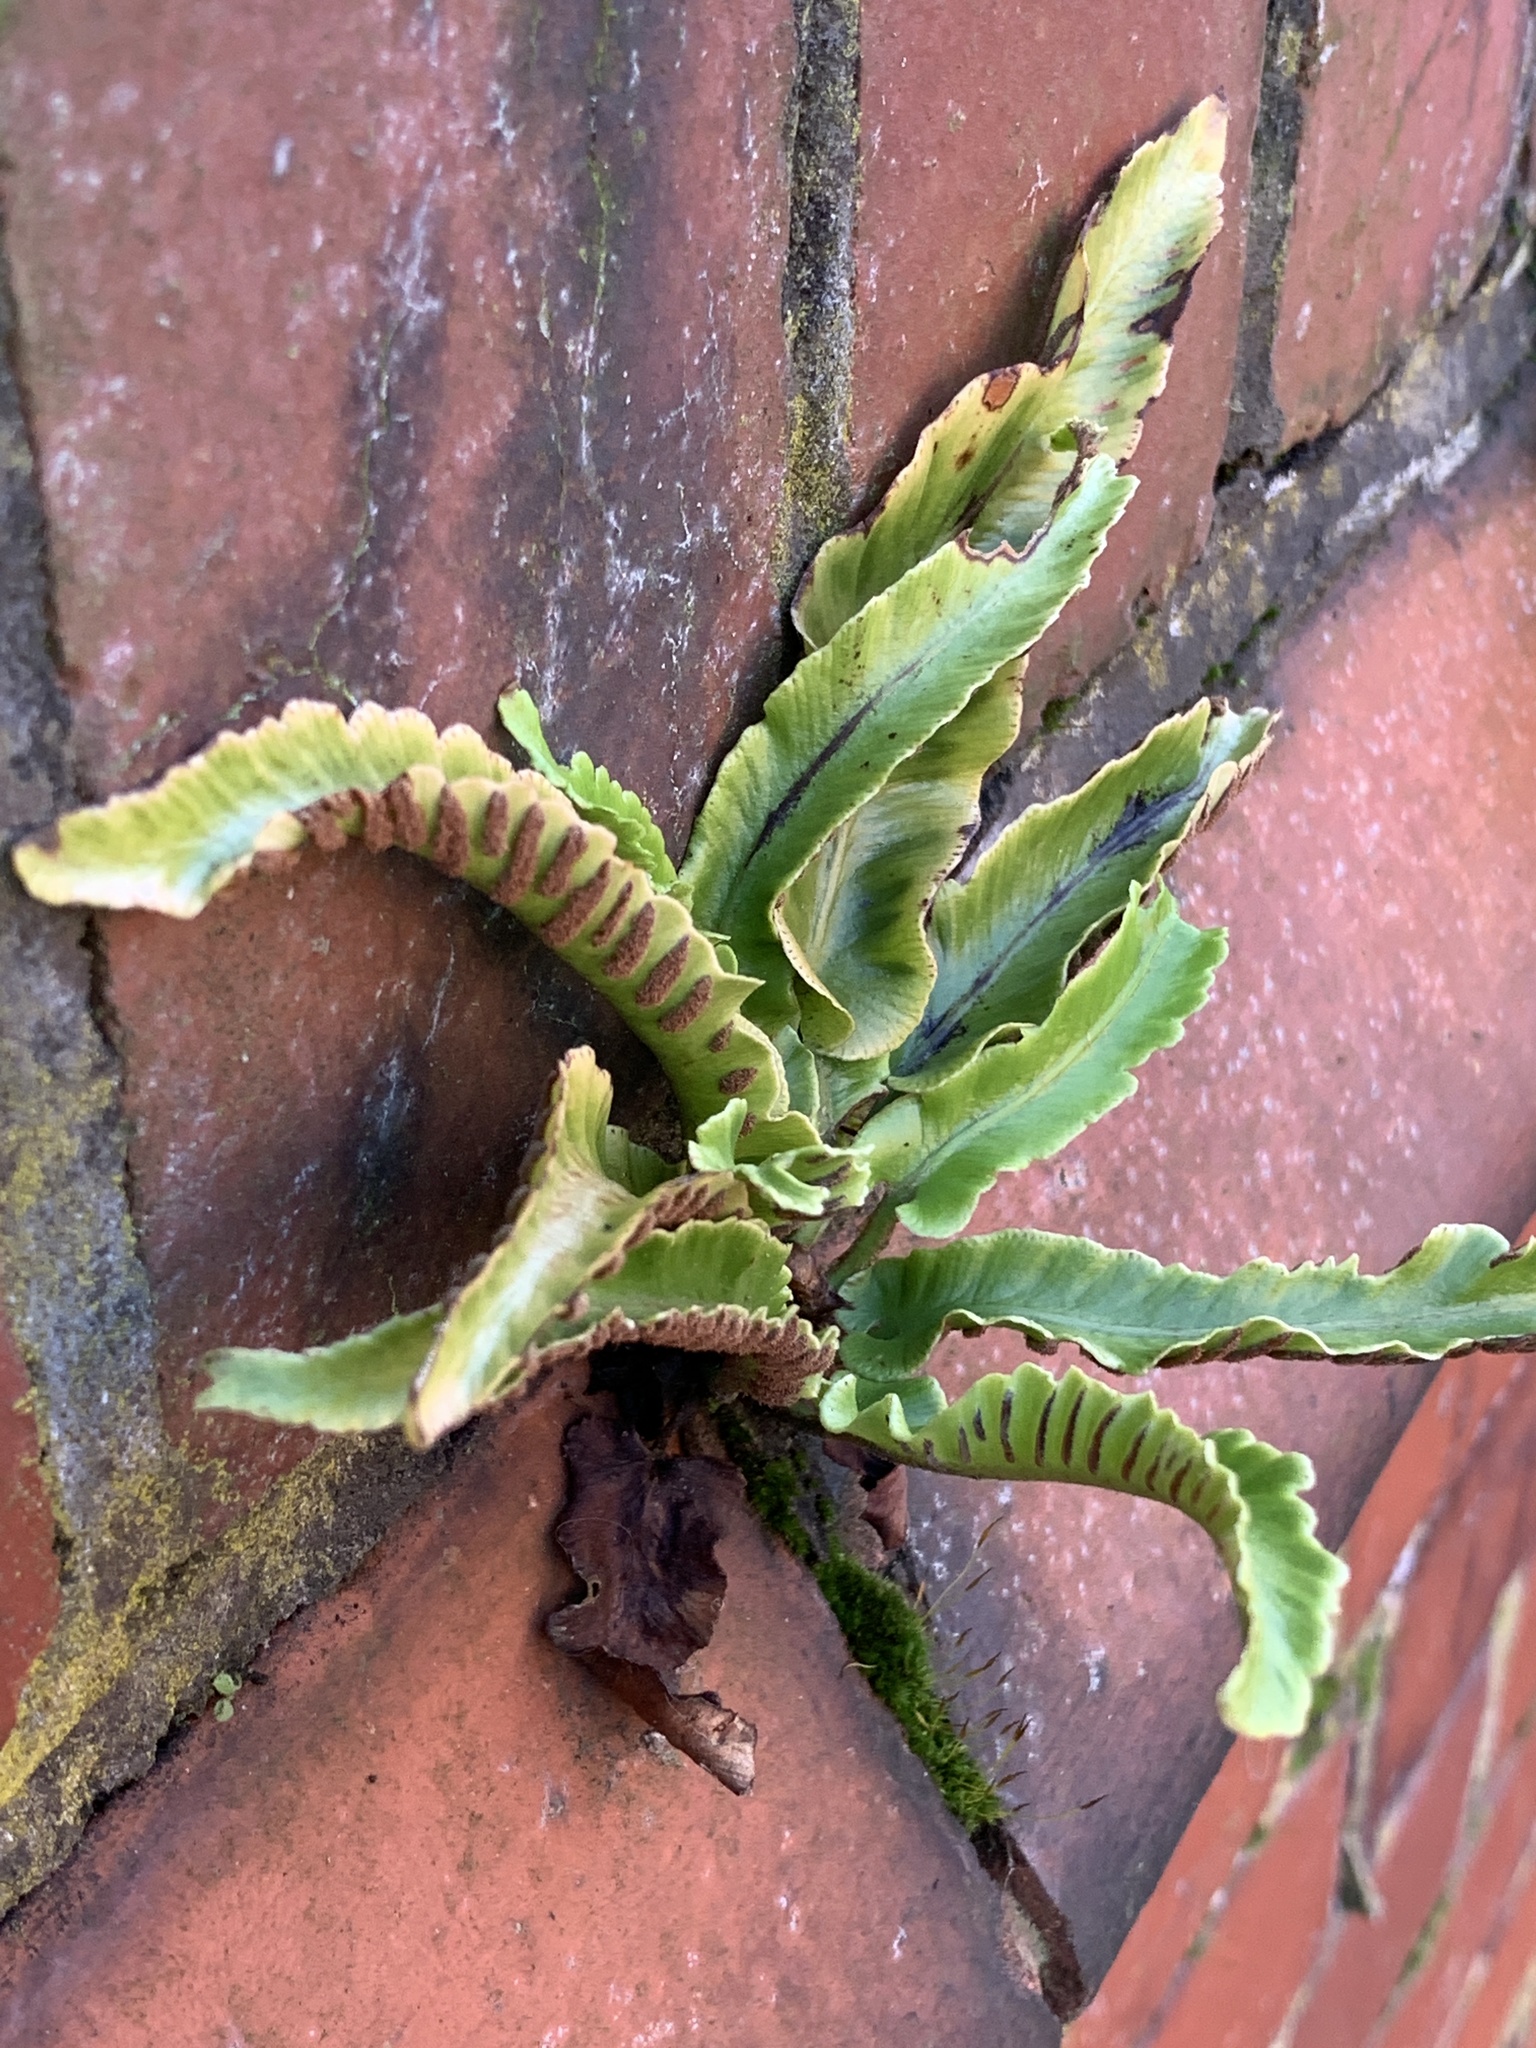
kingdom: Plantae
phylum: Tracheophyta
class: Polypodiopsida
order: Polypodiales
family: Aspleniaceae
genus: Asplenium
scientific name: Asplenium scolopendrium
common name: Hart's-tongue fern
